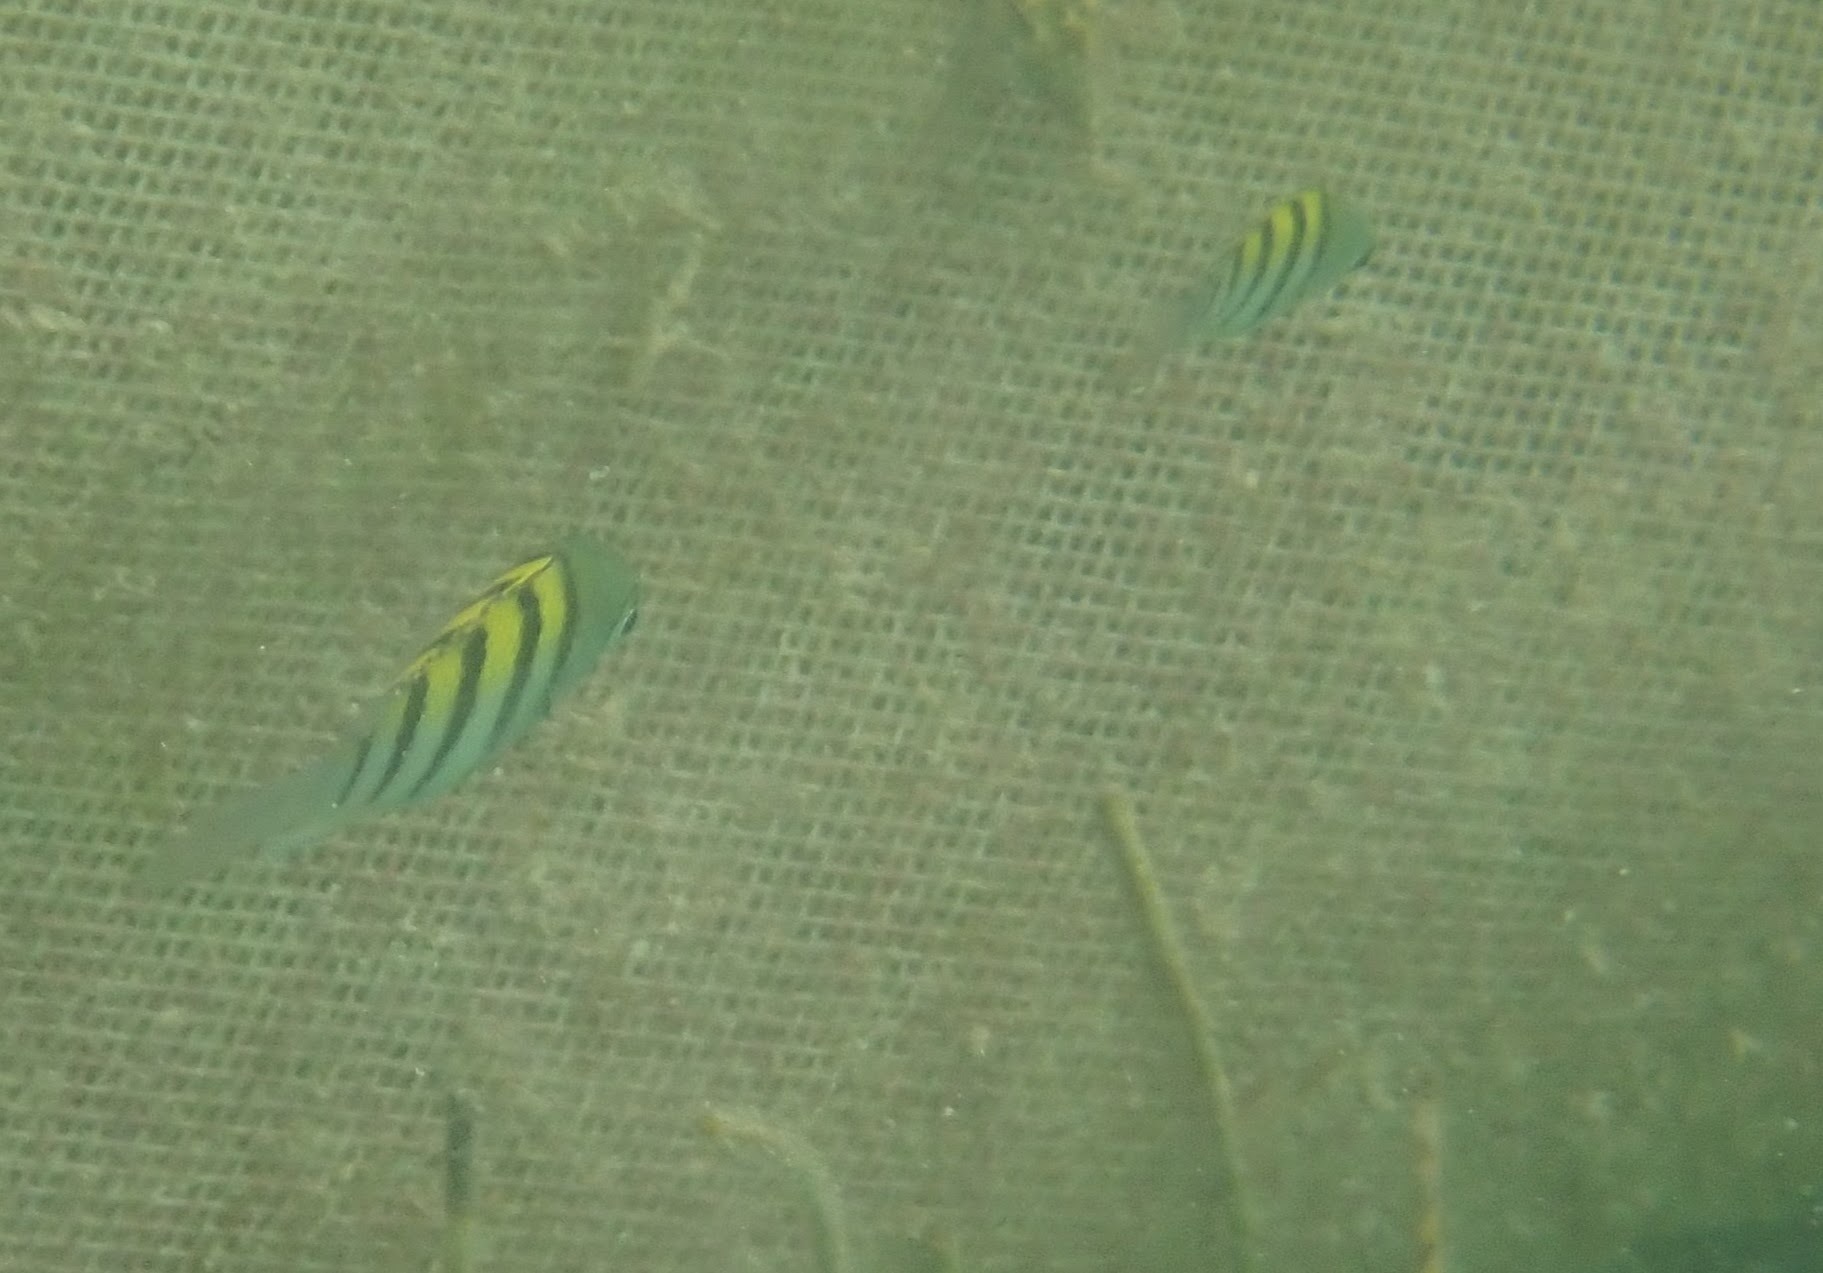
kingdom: Animalia
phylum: Chordata
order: Perciformes
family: Pomacentridae
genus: Abudefduf
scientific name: Abudefduf saxatilis
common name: Sergeant major
